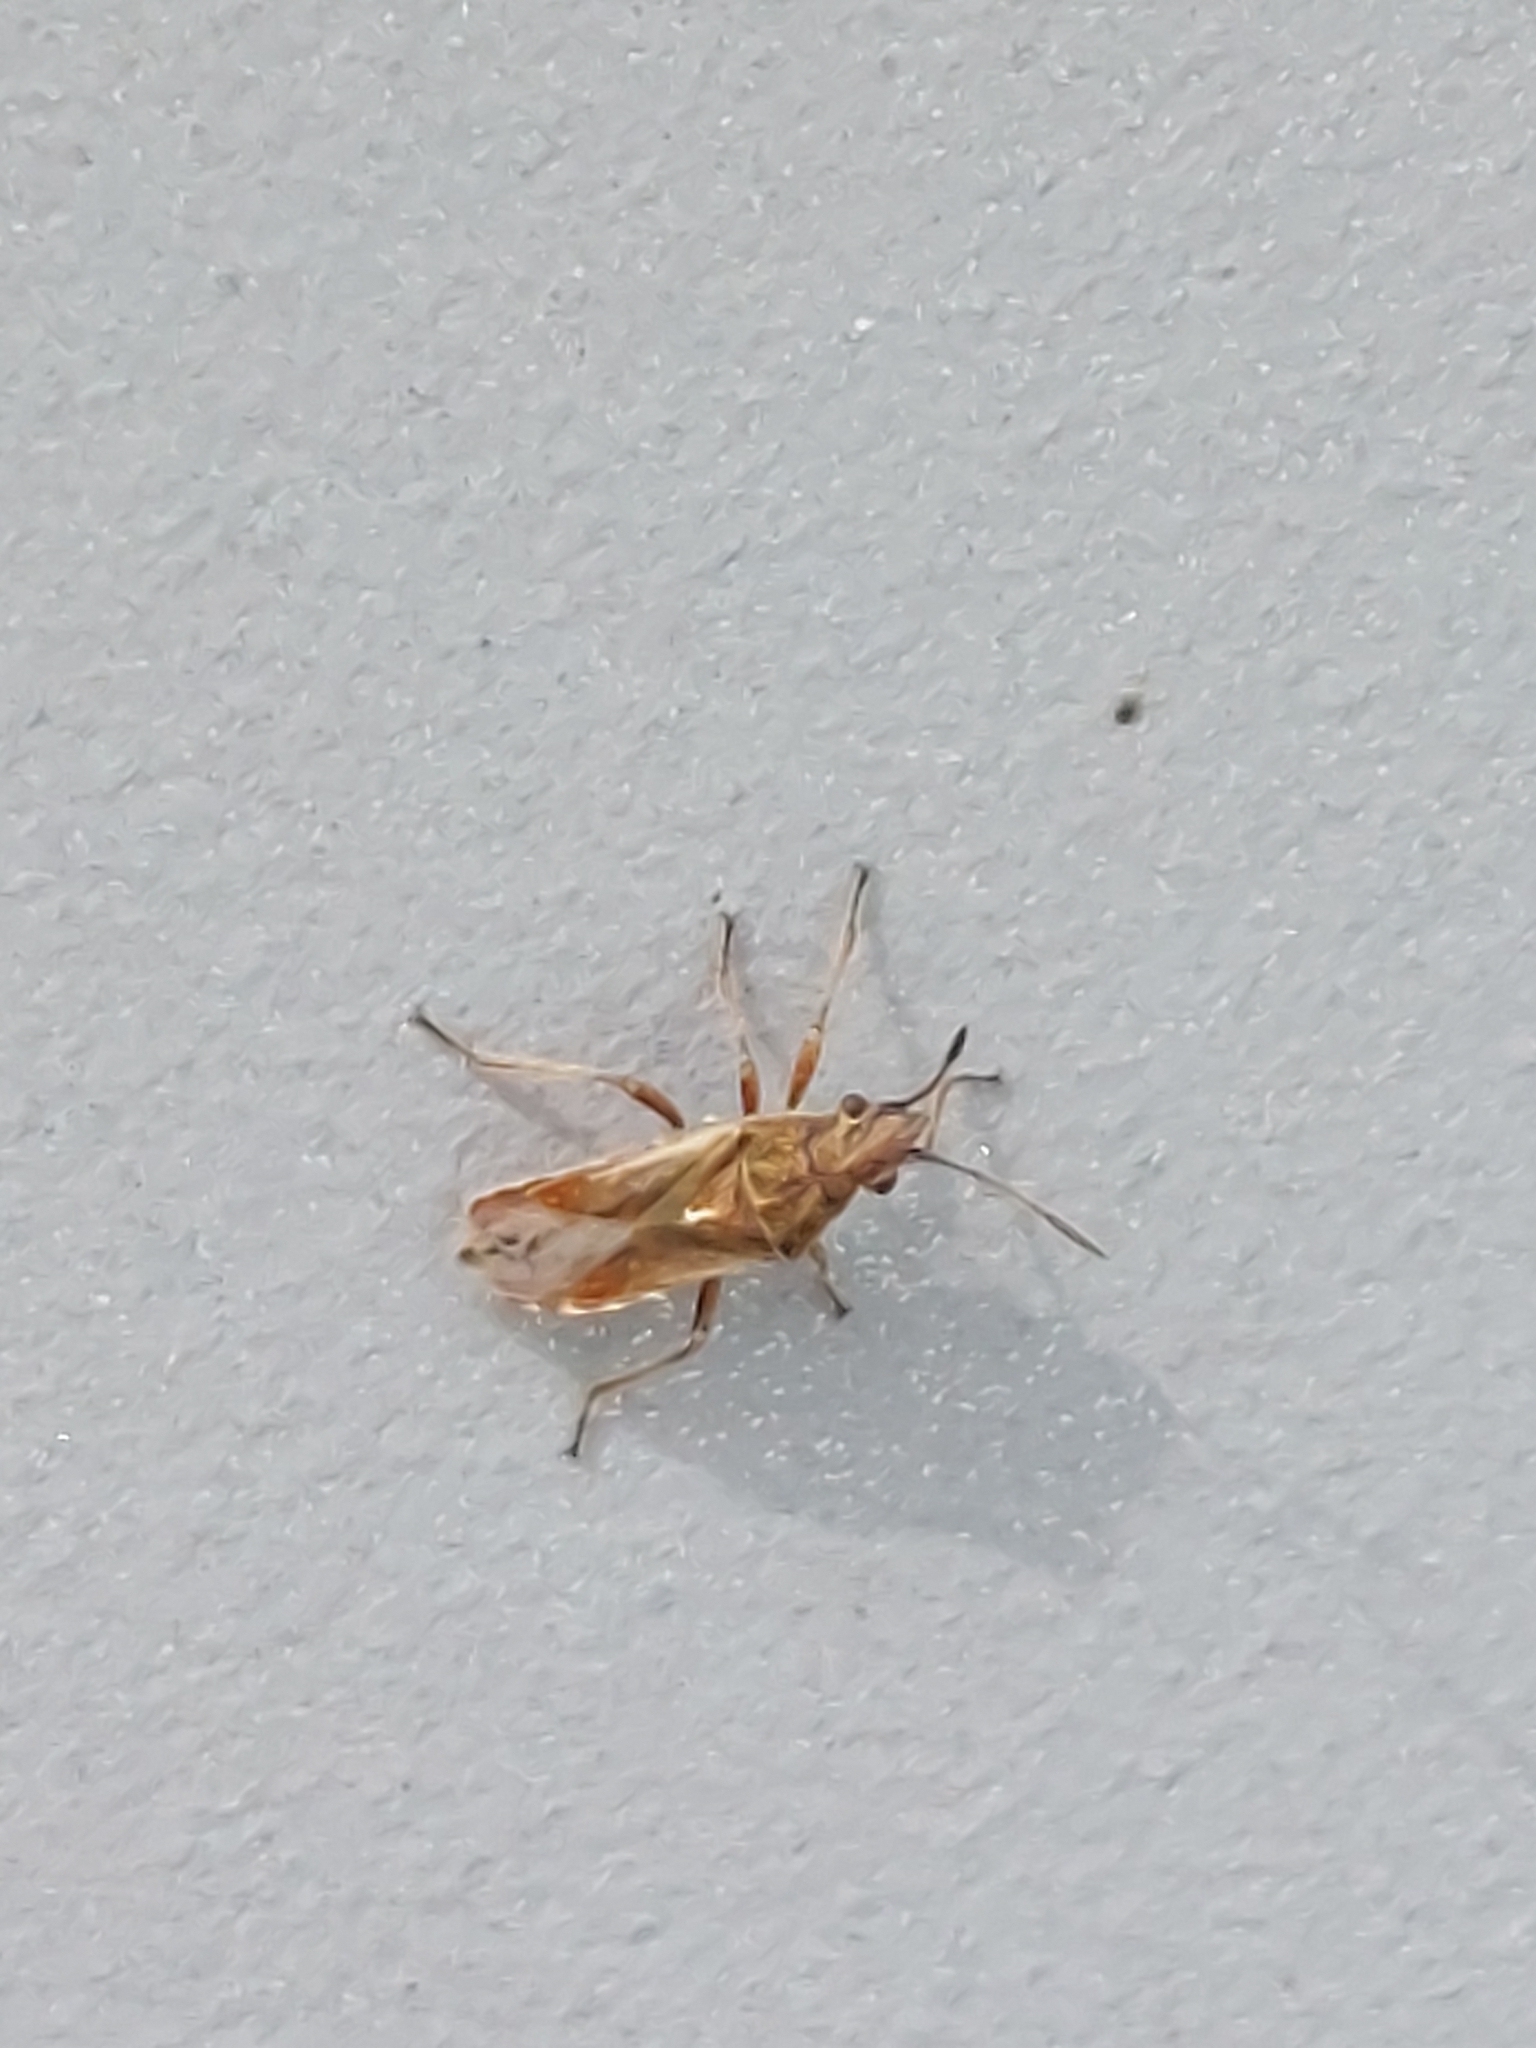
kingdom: Animalia
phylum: Arthropoda
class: Insecta
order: Hemiptera
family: Lygaeidae
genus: Neortholomus
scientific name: Neortholomus scolopax
